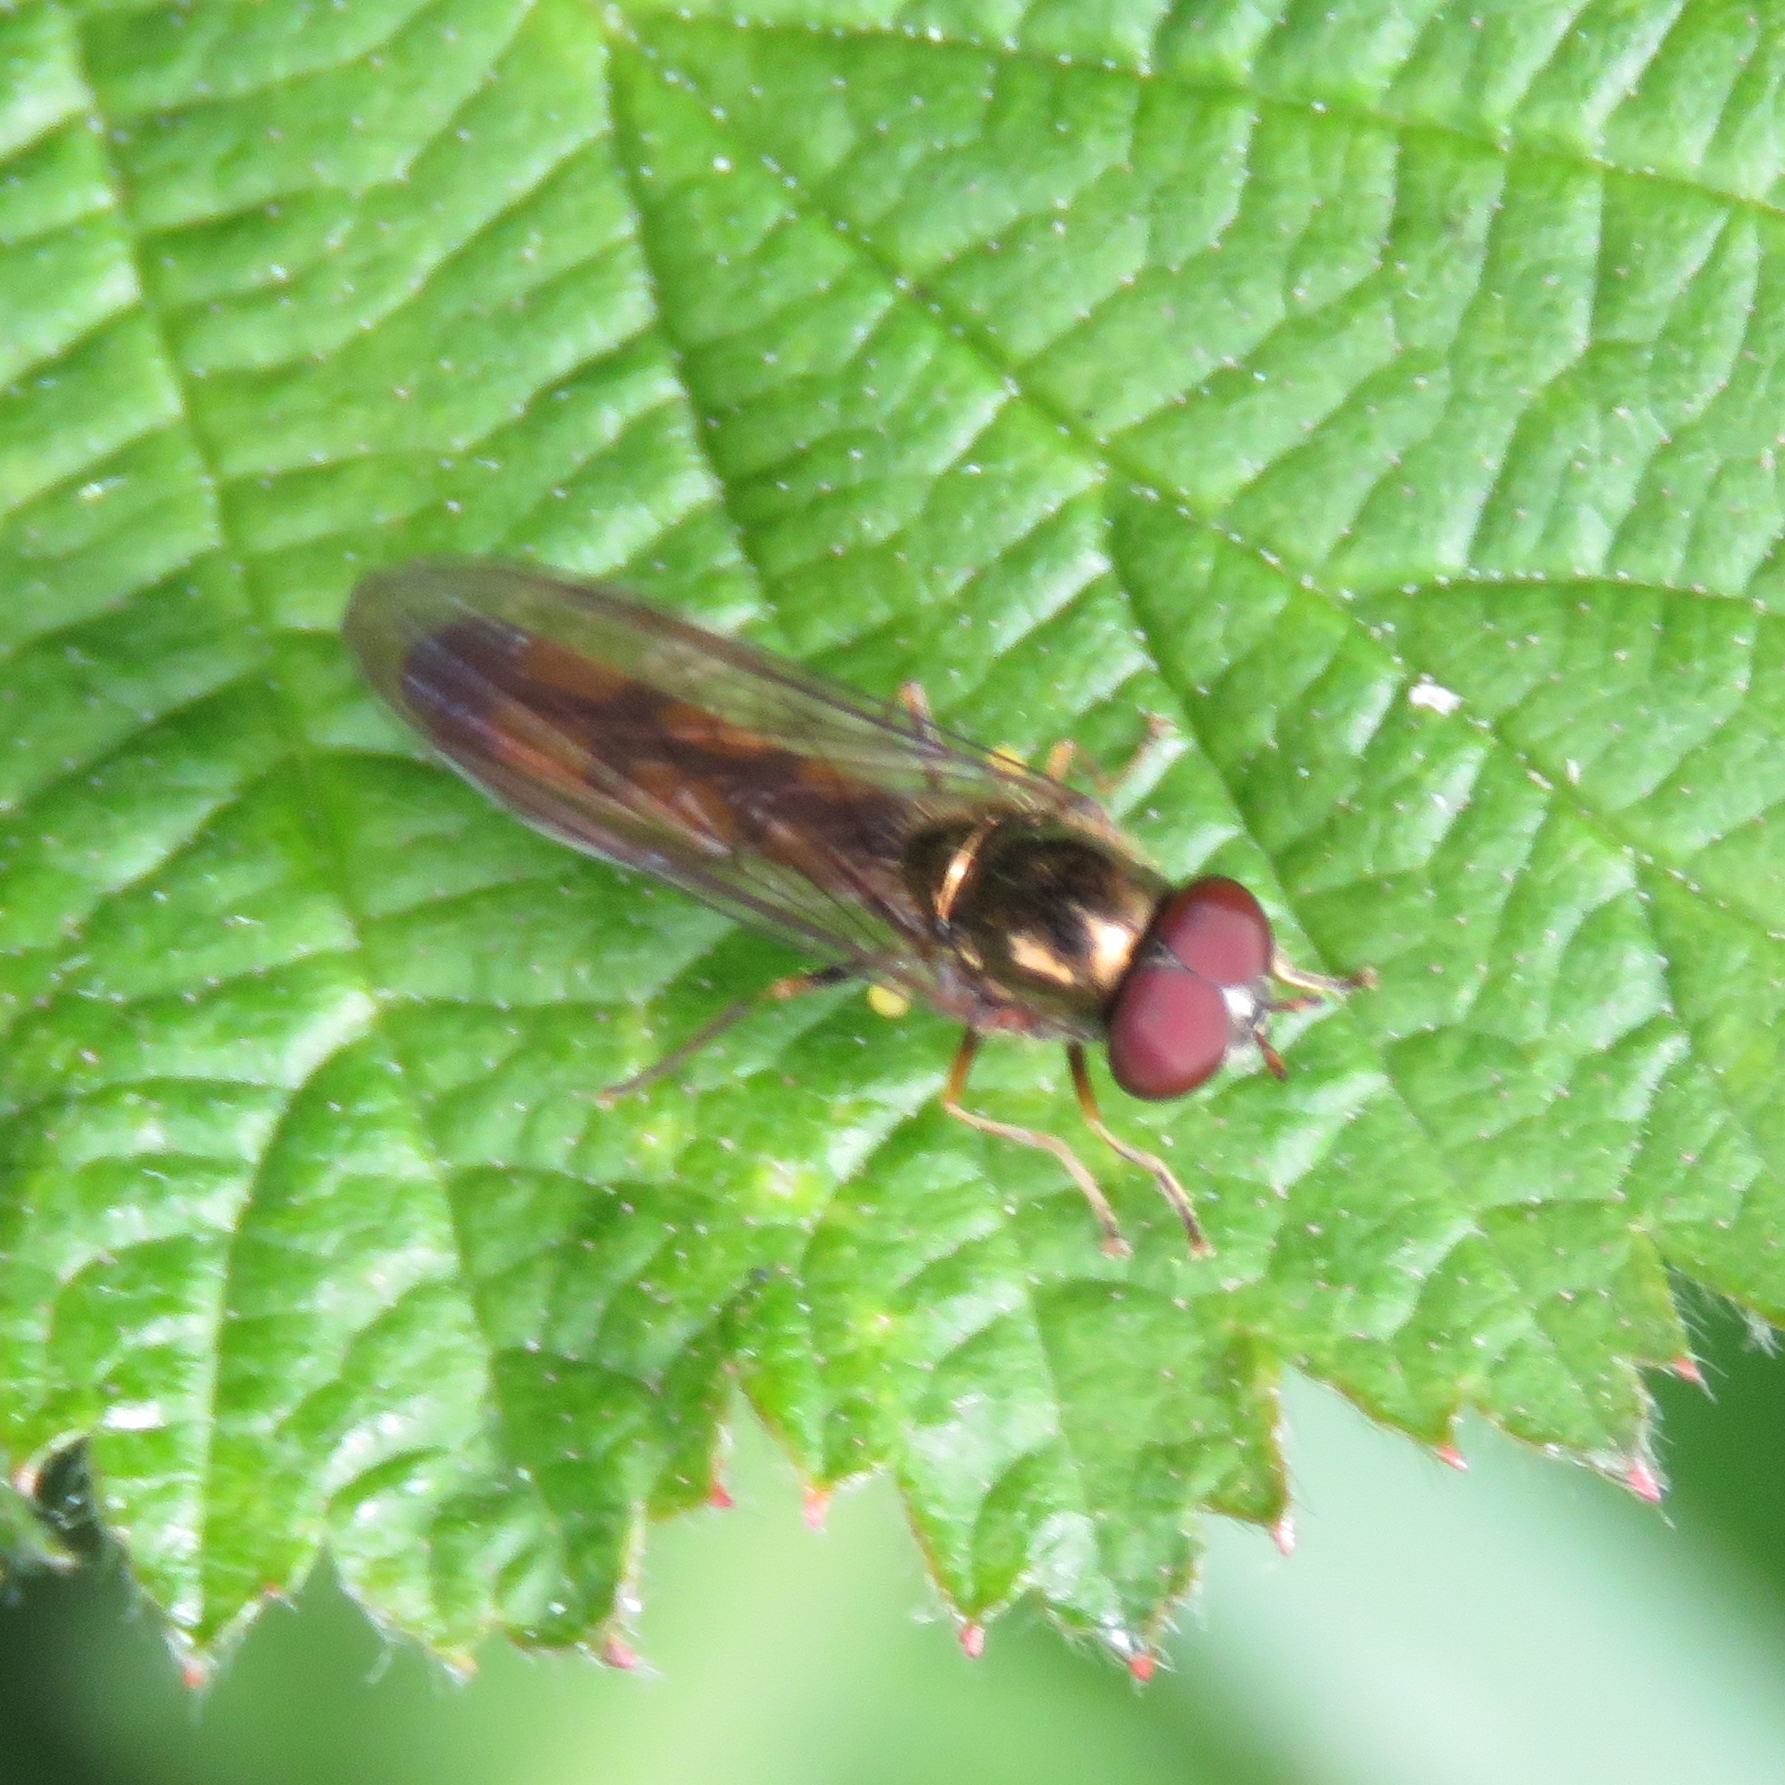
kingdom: Animalia
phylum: Arthropoda
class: Insecta
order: Diptera
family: Syrphidae
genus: Melanostoma
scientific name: Melanostoma scalare
